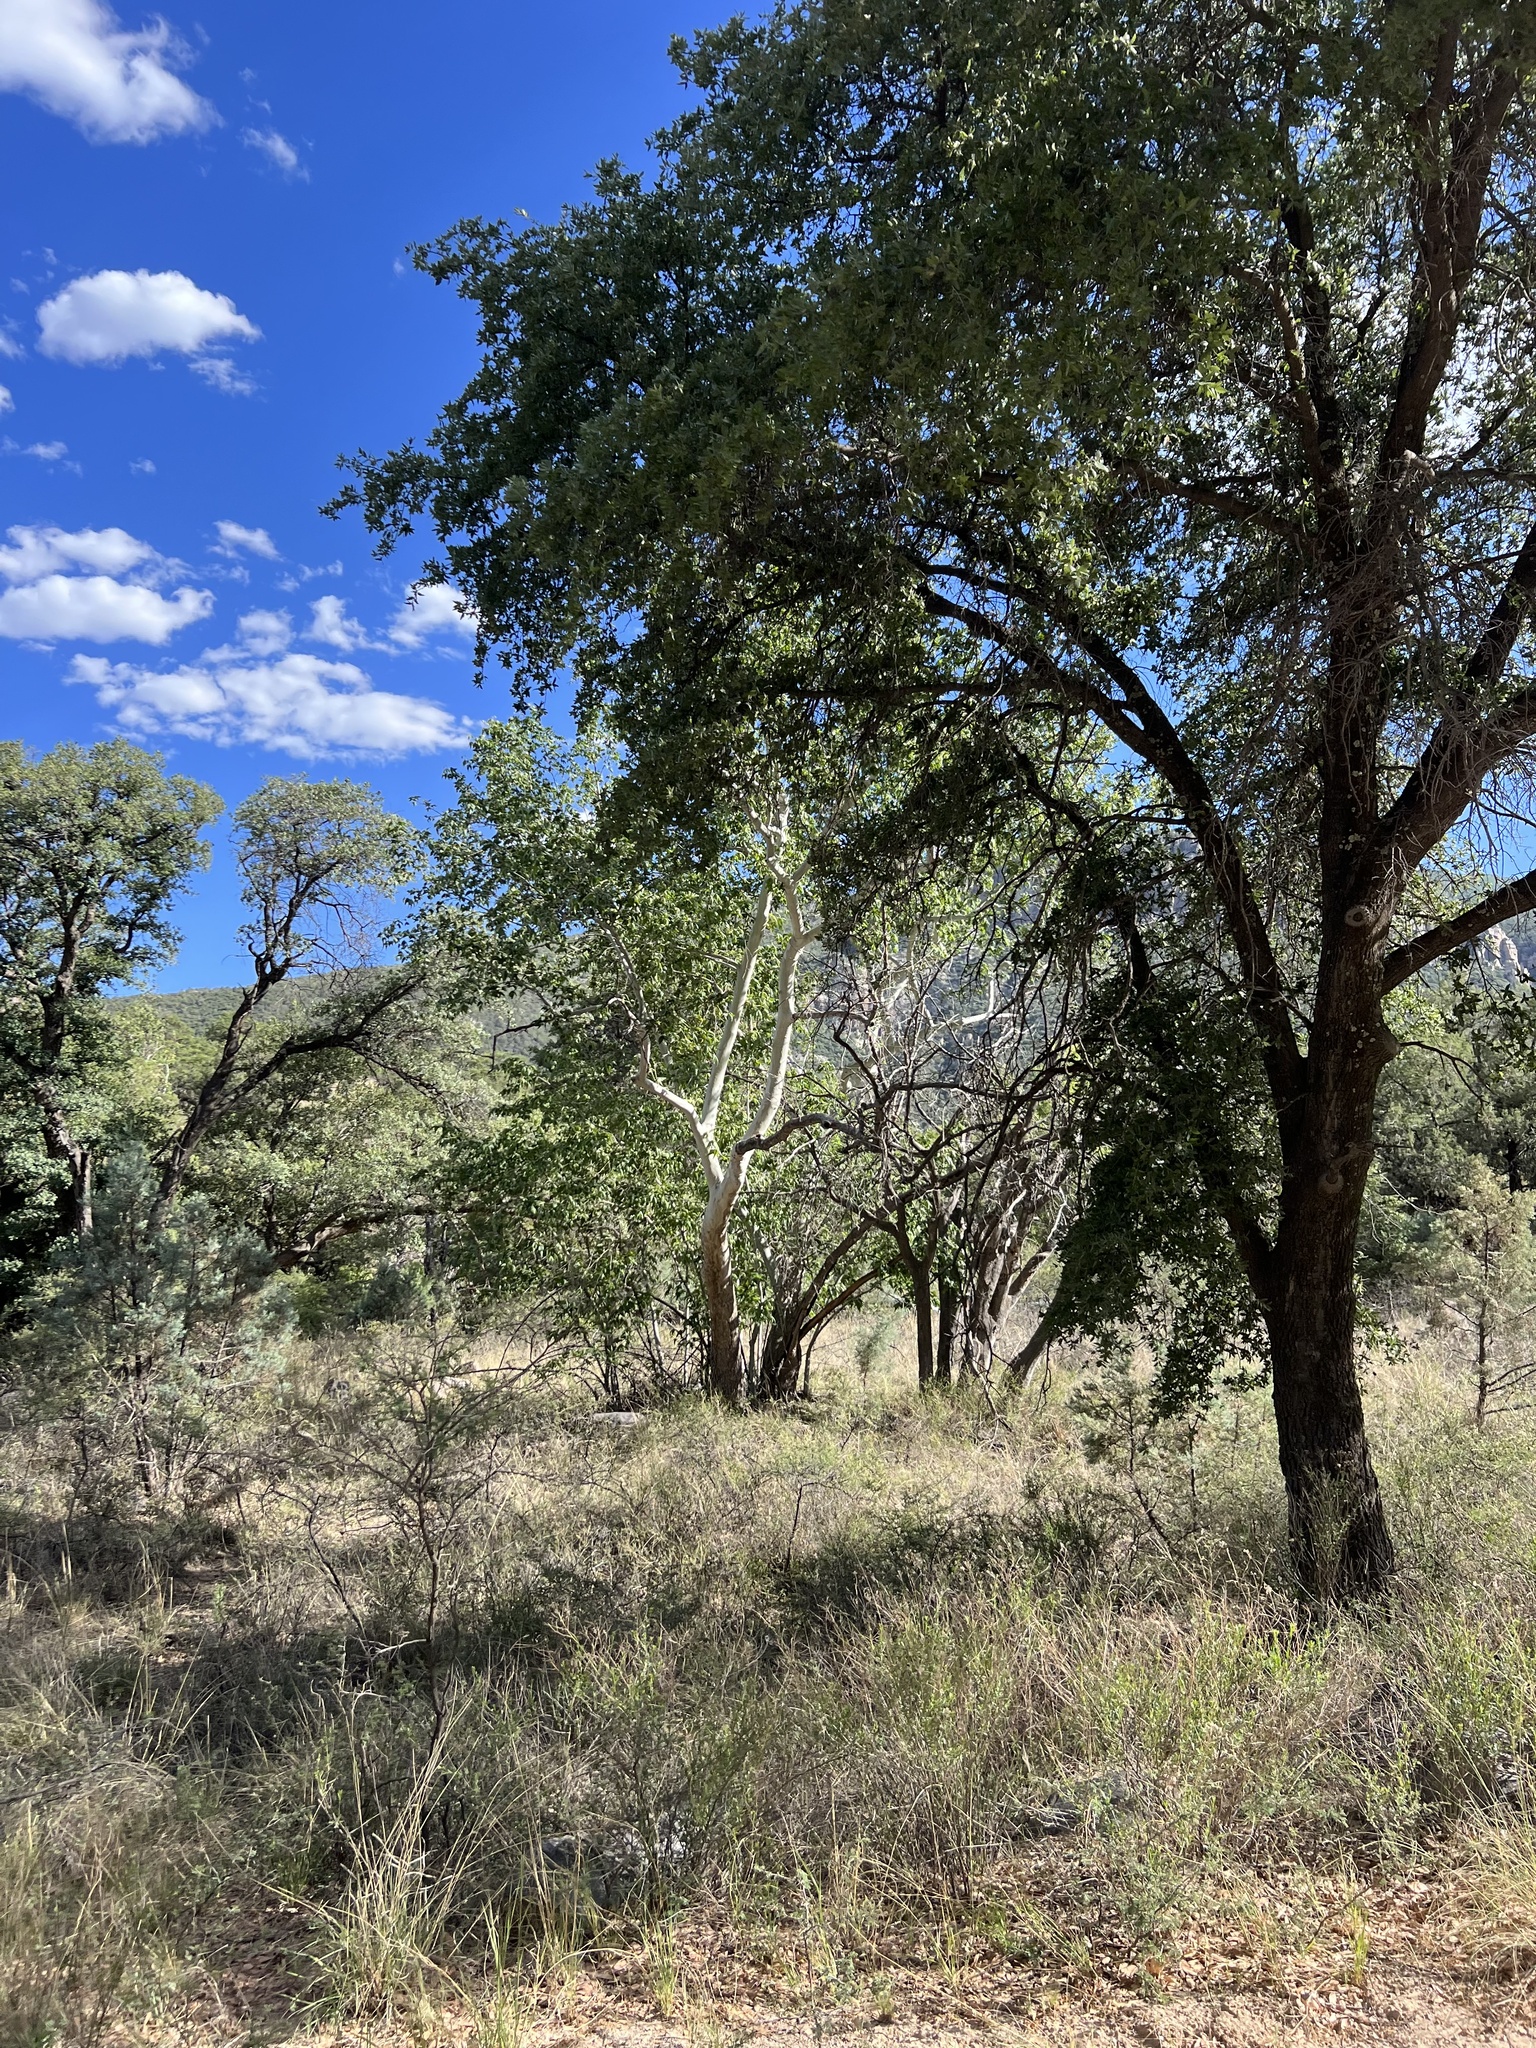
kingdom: Plantae
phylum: Tracheophyta
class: Magnoliopsida
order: Proteales
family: Platanaceae
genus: Platanus
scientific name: Platanus wrightii
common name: Arizona sycamore
